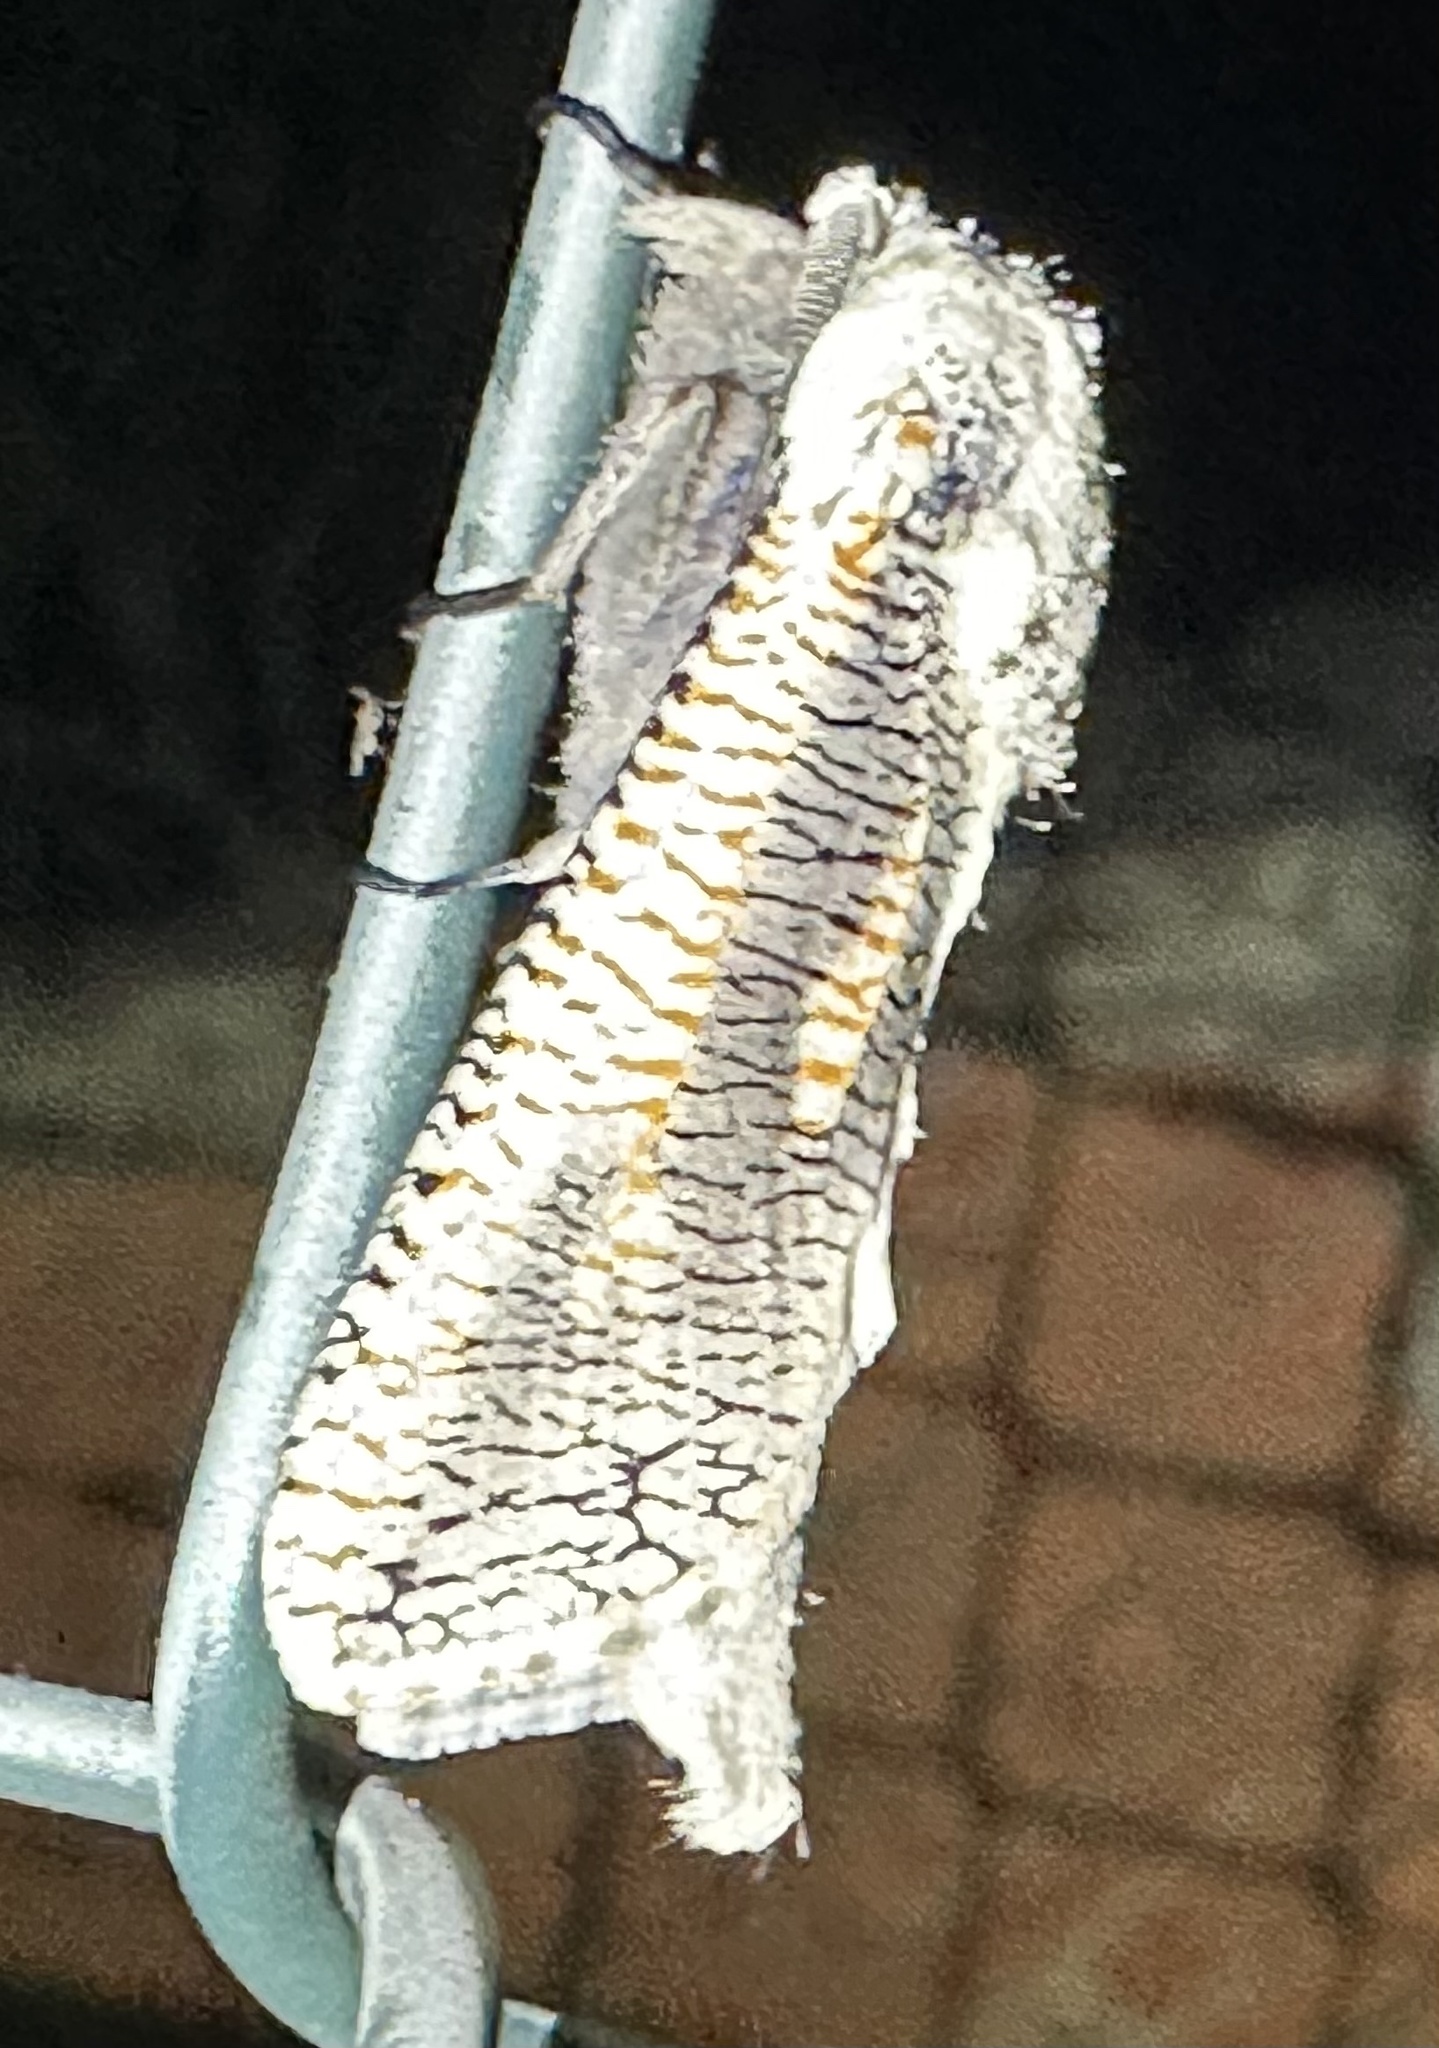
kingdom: Animalia
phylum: Arthropoda
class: Insecta
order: Lepidoptera
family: Cossidae
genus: Azygophleps
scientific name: Azygophleps inclusa
